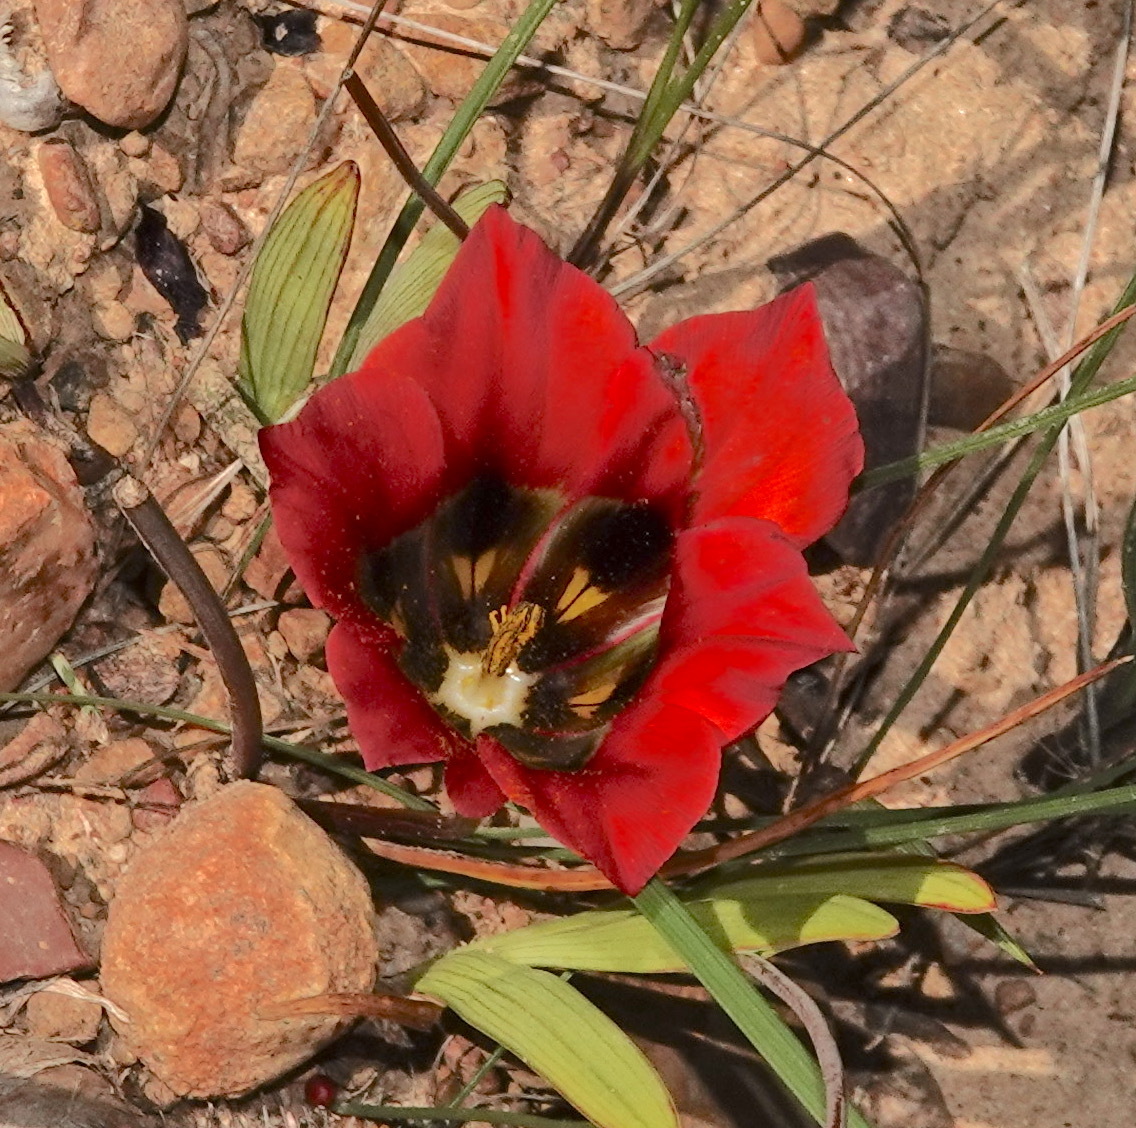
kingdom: Plantae
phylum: Tracheophyta
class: Liliopsida
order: Asparagales
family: Iridaceae
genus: Romulea
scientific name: Romulea sabulosa
